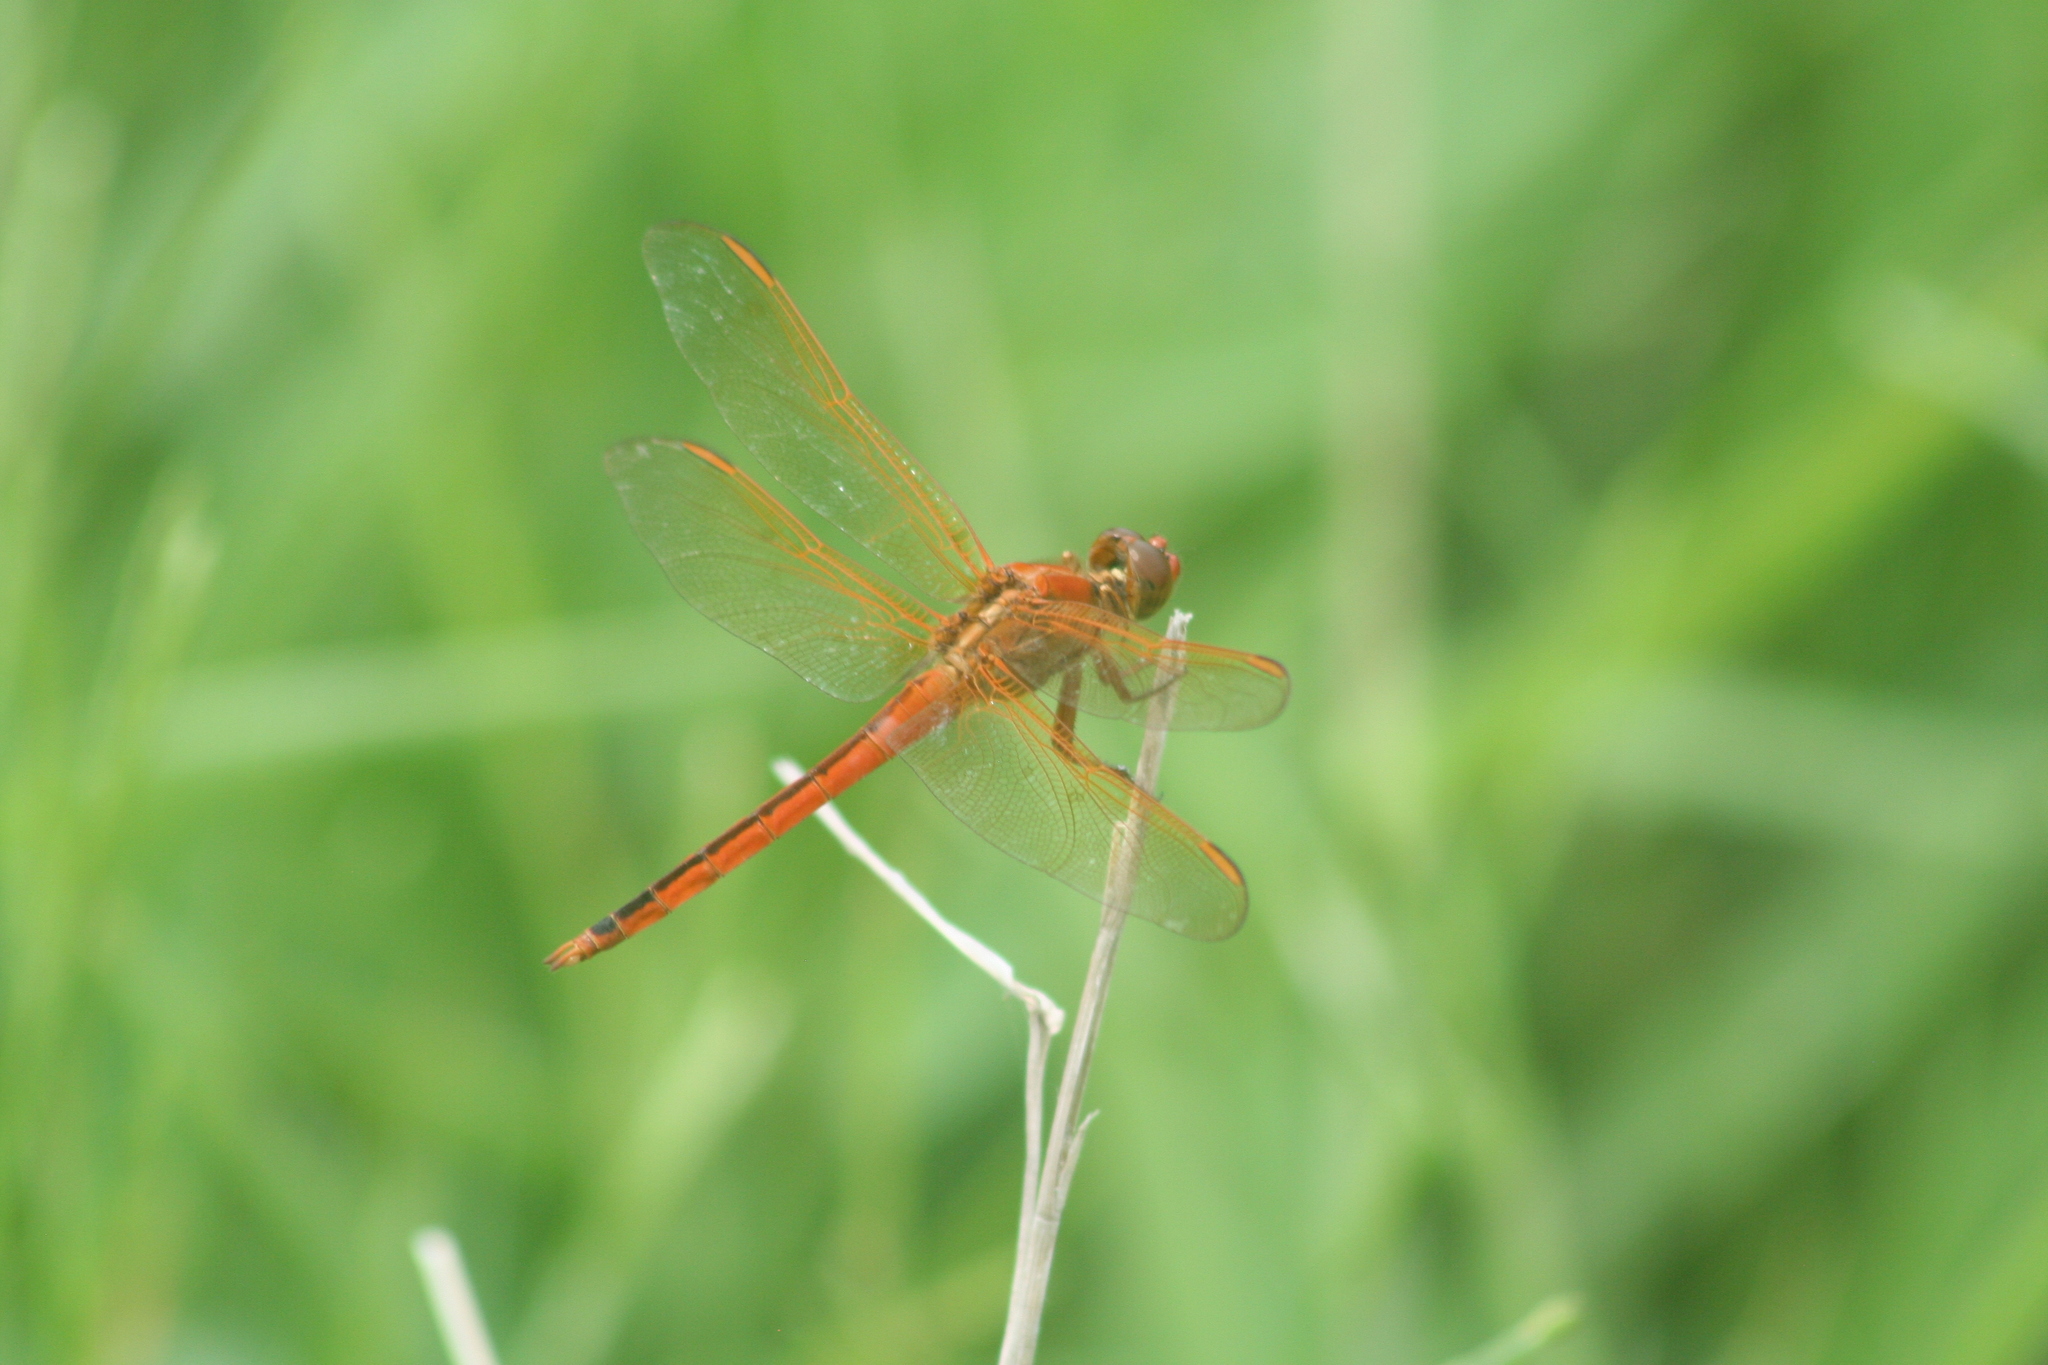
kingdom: Animalia
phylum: Arthropoda
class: Insecta
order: Odonata
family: Libellulidae
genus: Libellula
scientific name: Libellula needhami
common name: Needham's skimmer
